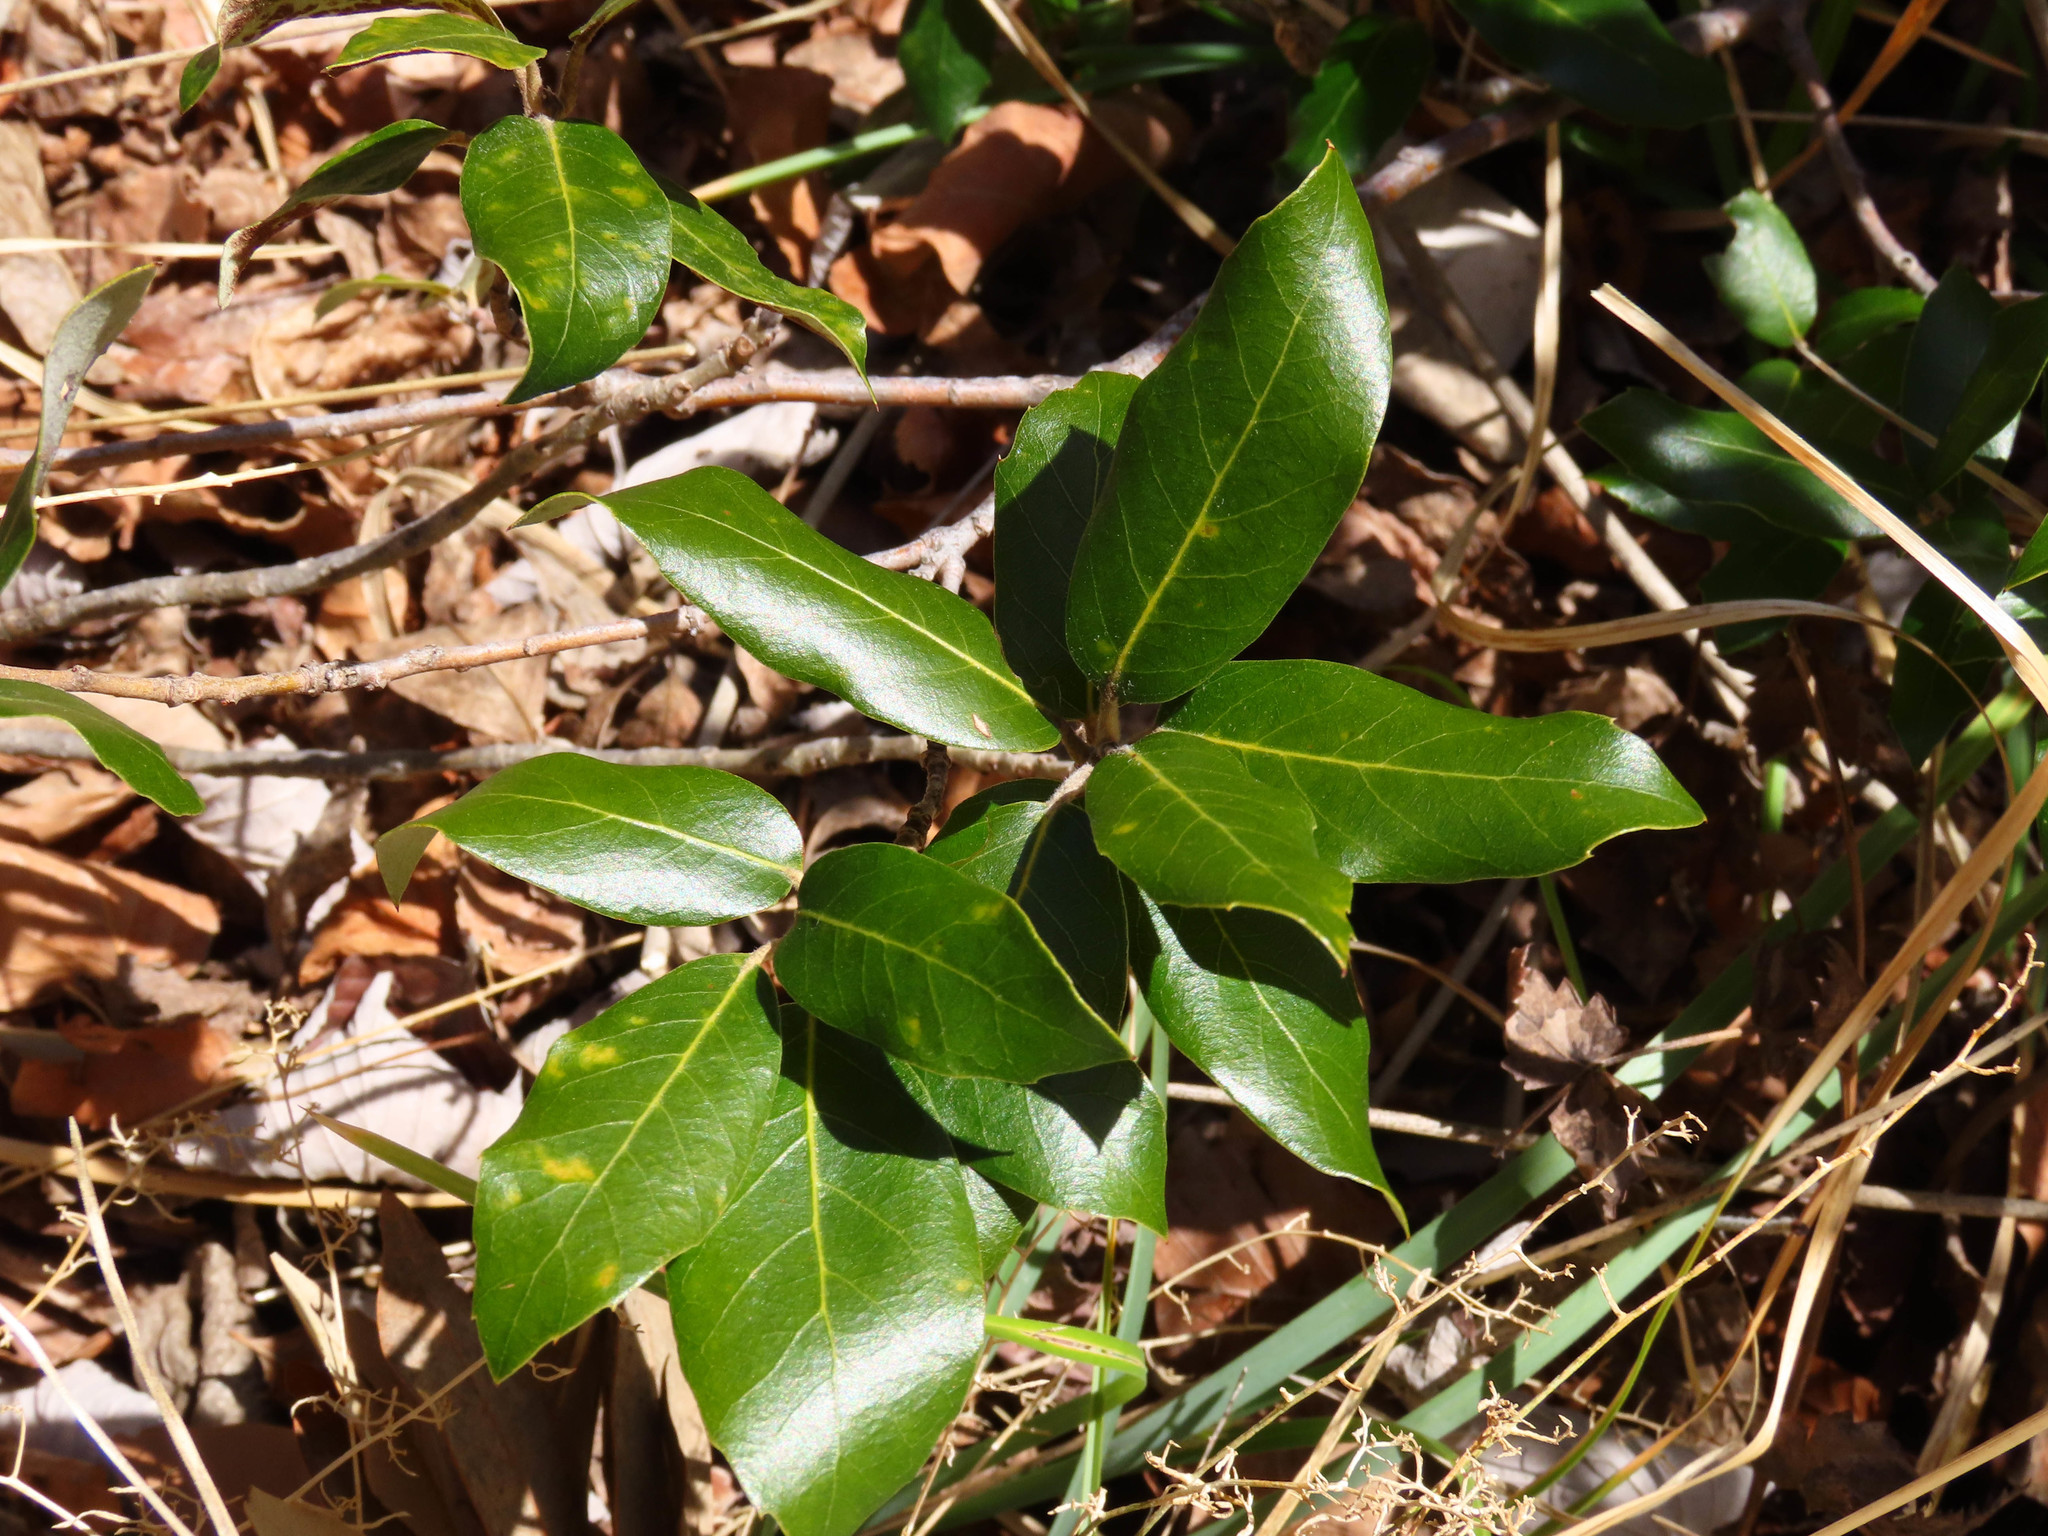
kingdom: Plantae
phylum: Tracheophyta
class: Magnoliopsida
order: Fagales
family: Fagaceae
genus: Quercus
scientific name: Quercus ilex
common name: Evergreen oak
